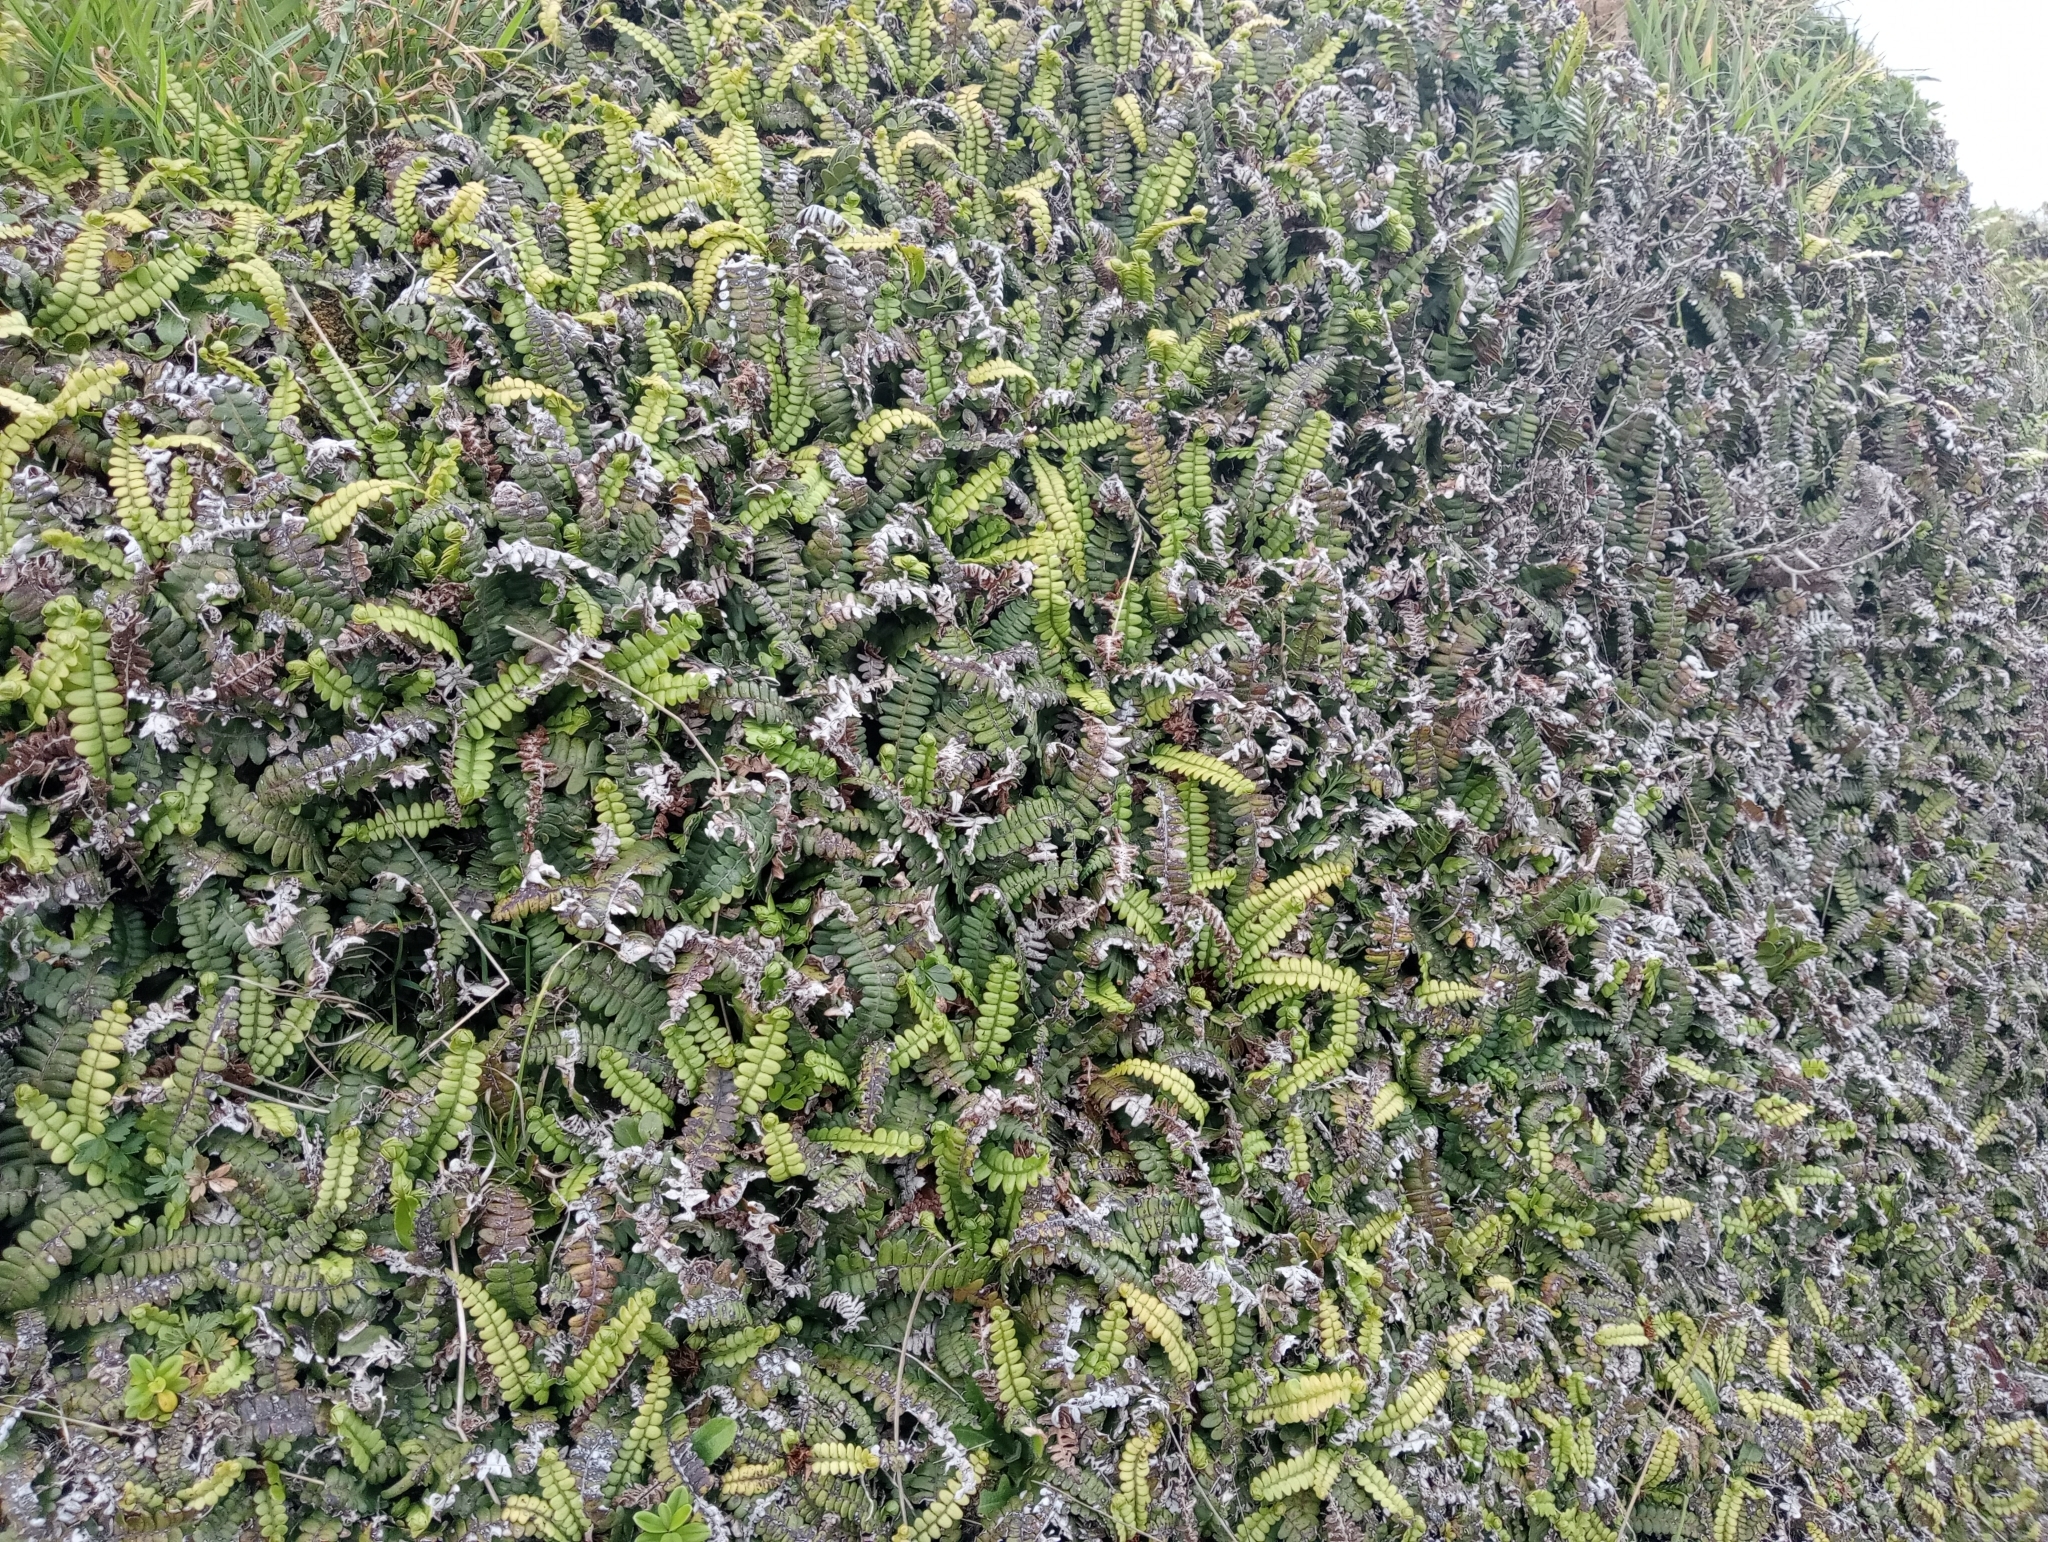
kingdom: Plantae
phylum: Tracheophyta
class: Polypodiopsida
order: Polypodiales
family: Blechnaceae
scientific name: Blechnaceae
